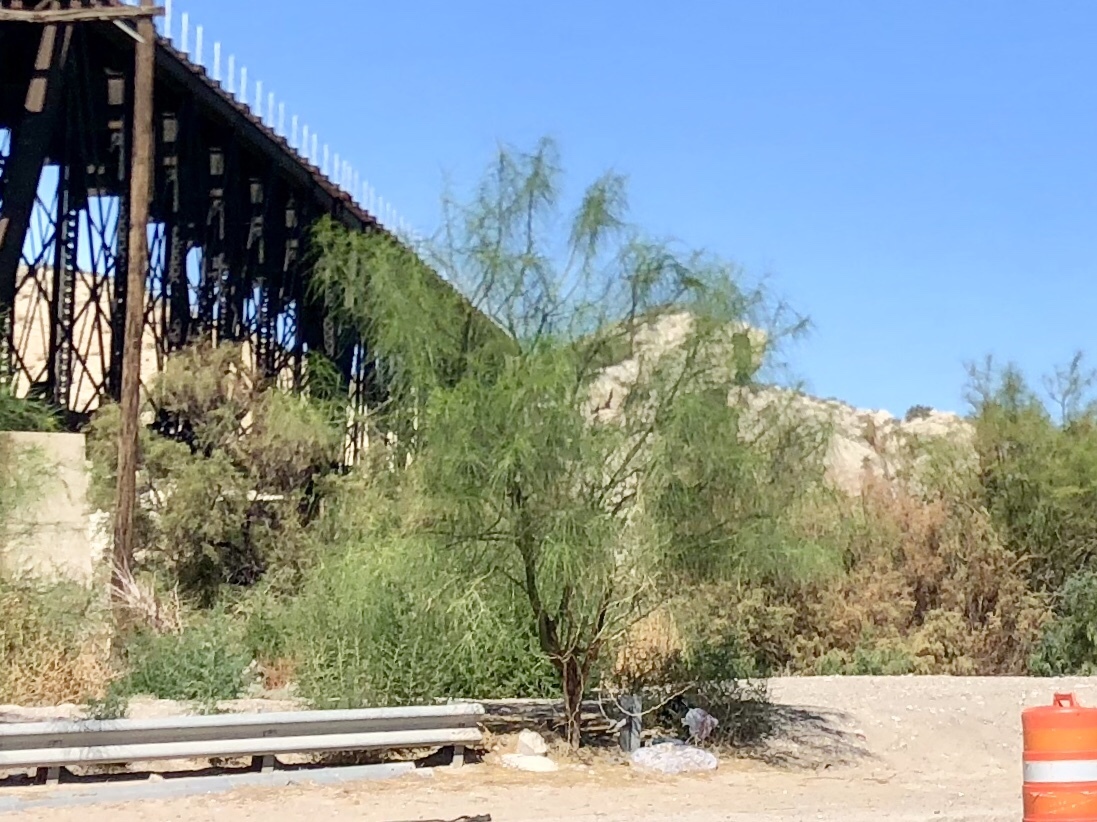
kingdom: Plantae
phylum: Tracheophyta
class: Magnoliopsida
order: Fabales
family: Fabaceae
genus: Parkinsonia
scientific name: Parkinsonia aculeata
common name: Jerusalem thorn
